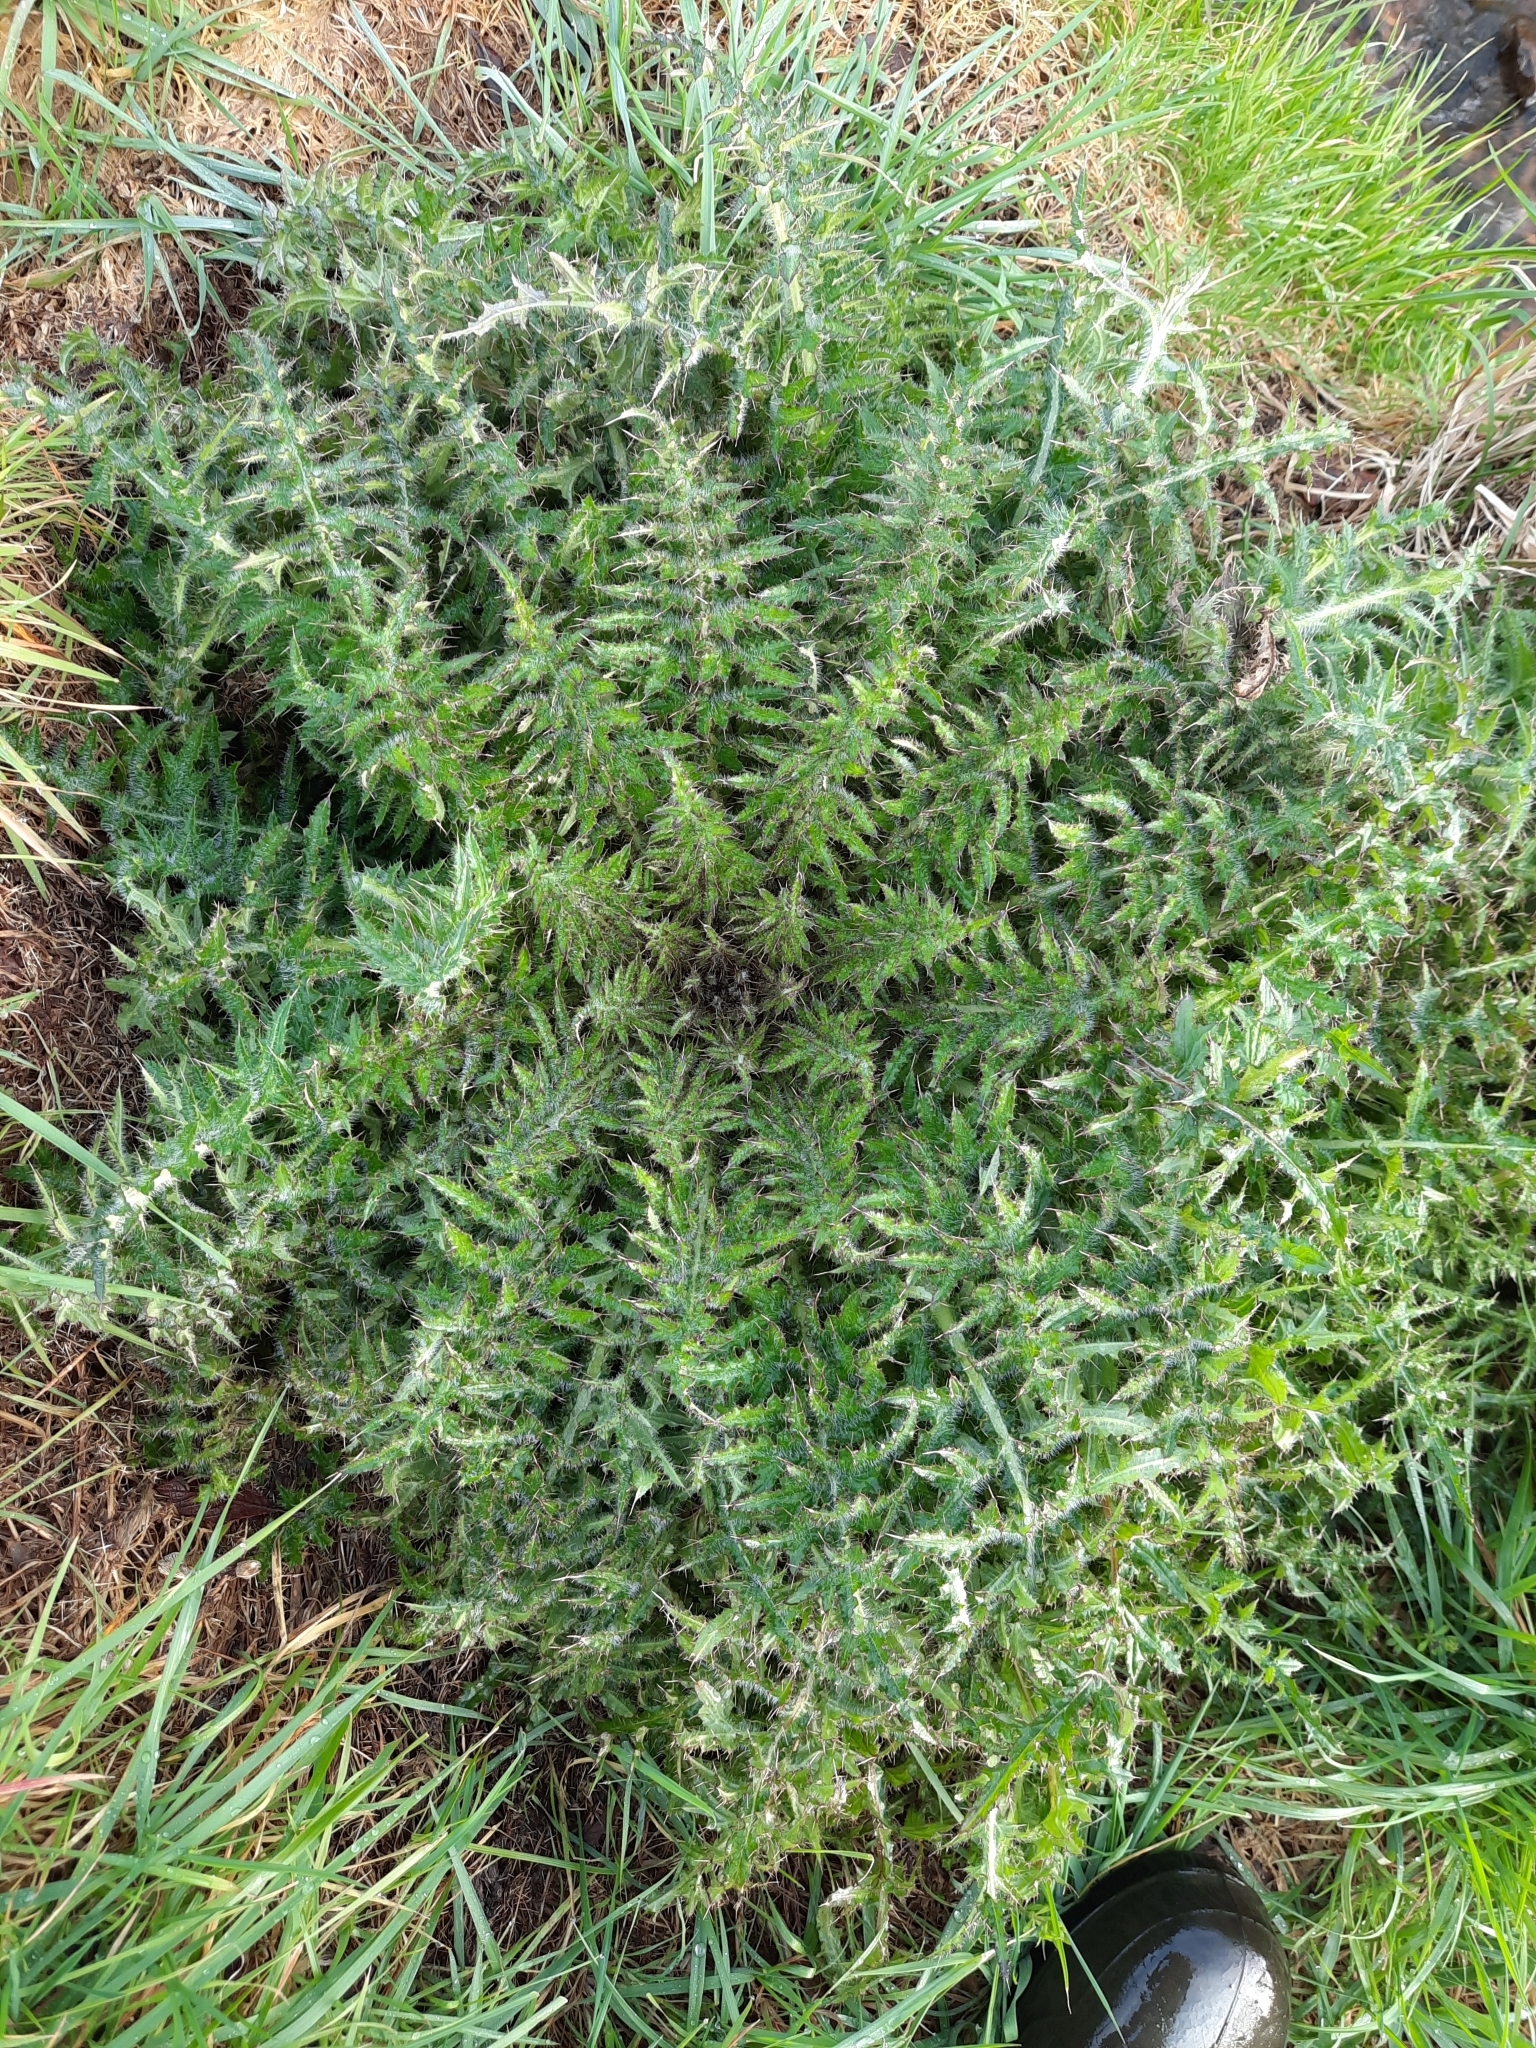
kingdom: Plantae
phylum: Tracheophyta
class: Magnoliopsida
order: Asterales
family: Asteraceae
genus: Cirsium
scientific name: Cirsium palustre
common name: Marsh thistle
